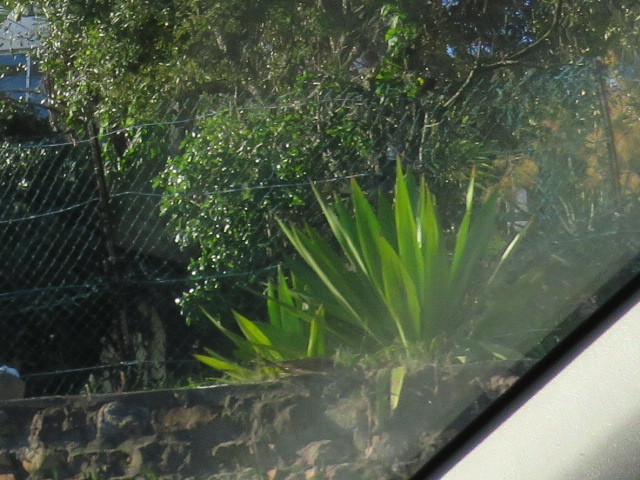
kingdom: Plantae
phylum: Tracheophyta
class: Liliopsida
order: Asparagales
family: Asparagaceae
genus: Furcraea
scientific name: Furcraea foetida
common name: Mauritius hemp
